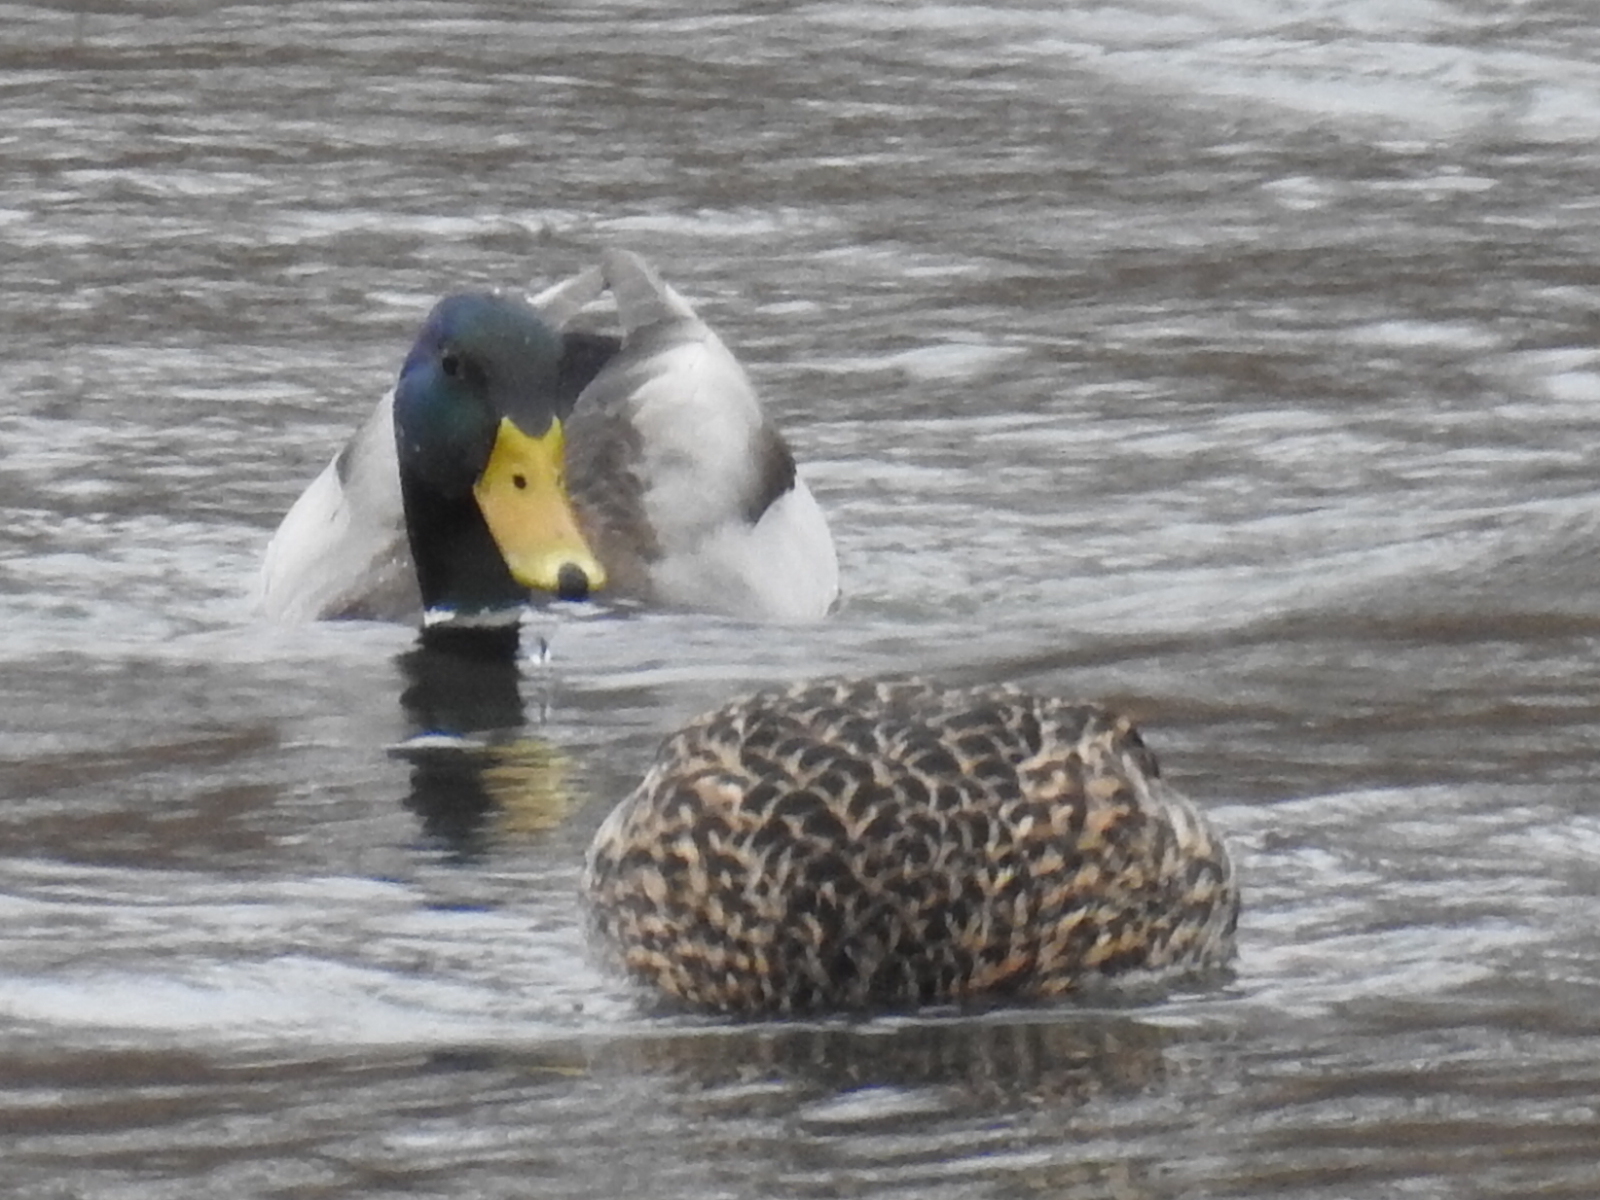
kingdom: Animalia
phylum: Chordata
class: Aves
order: Anseriformes
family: Anatidae
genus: Anas
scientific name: Anas platyrhynchos
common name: Mallard
